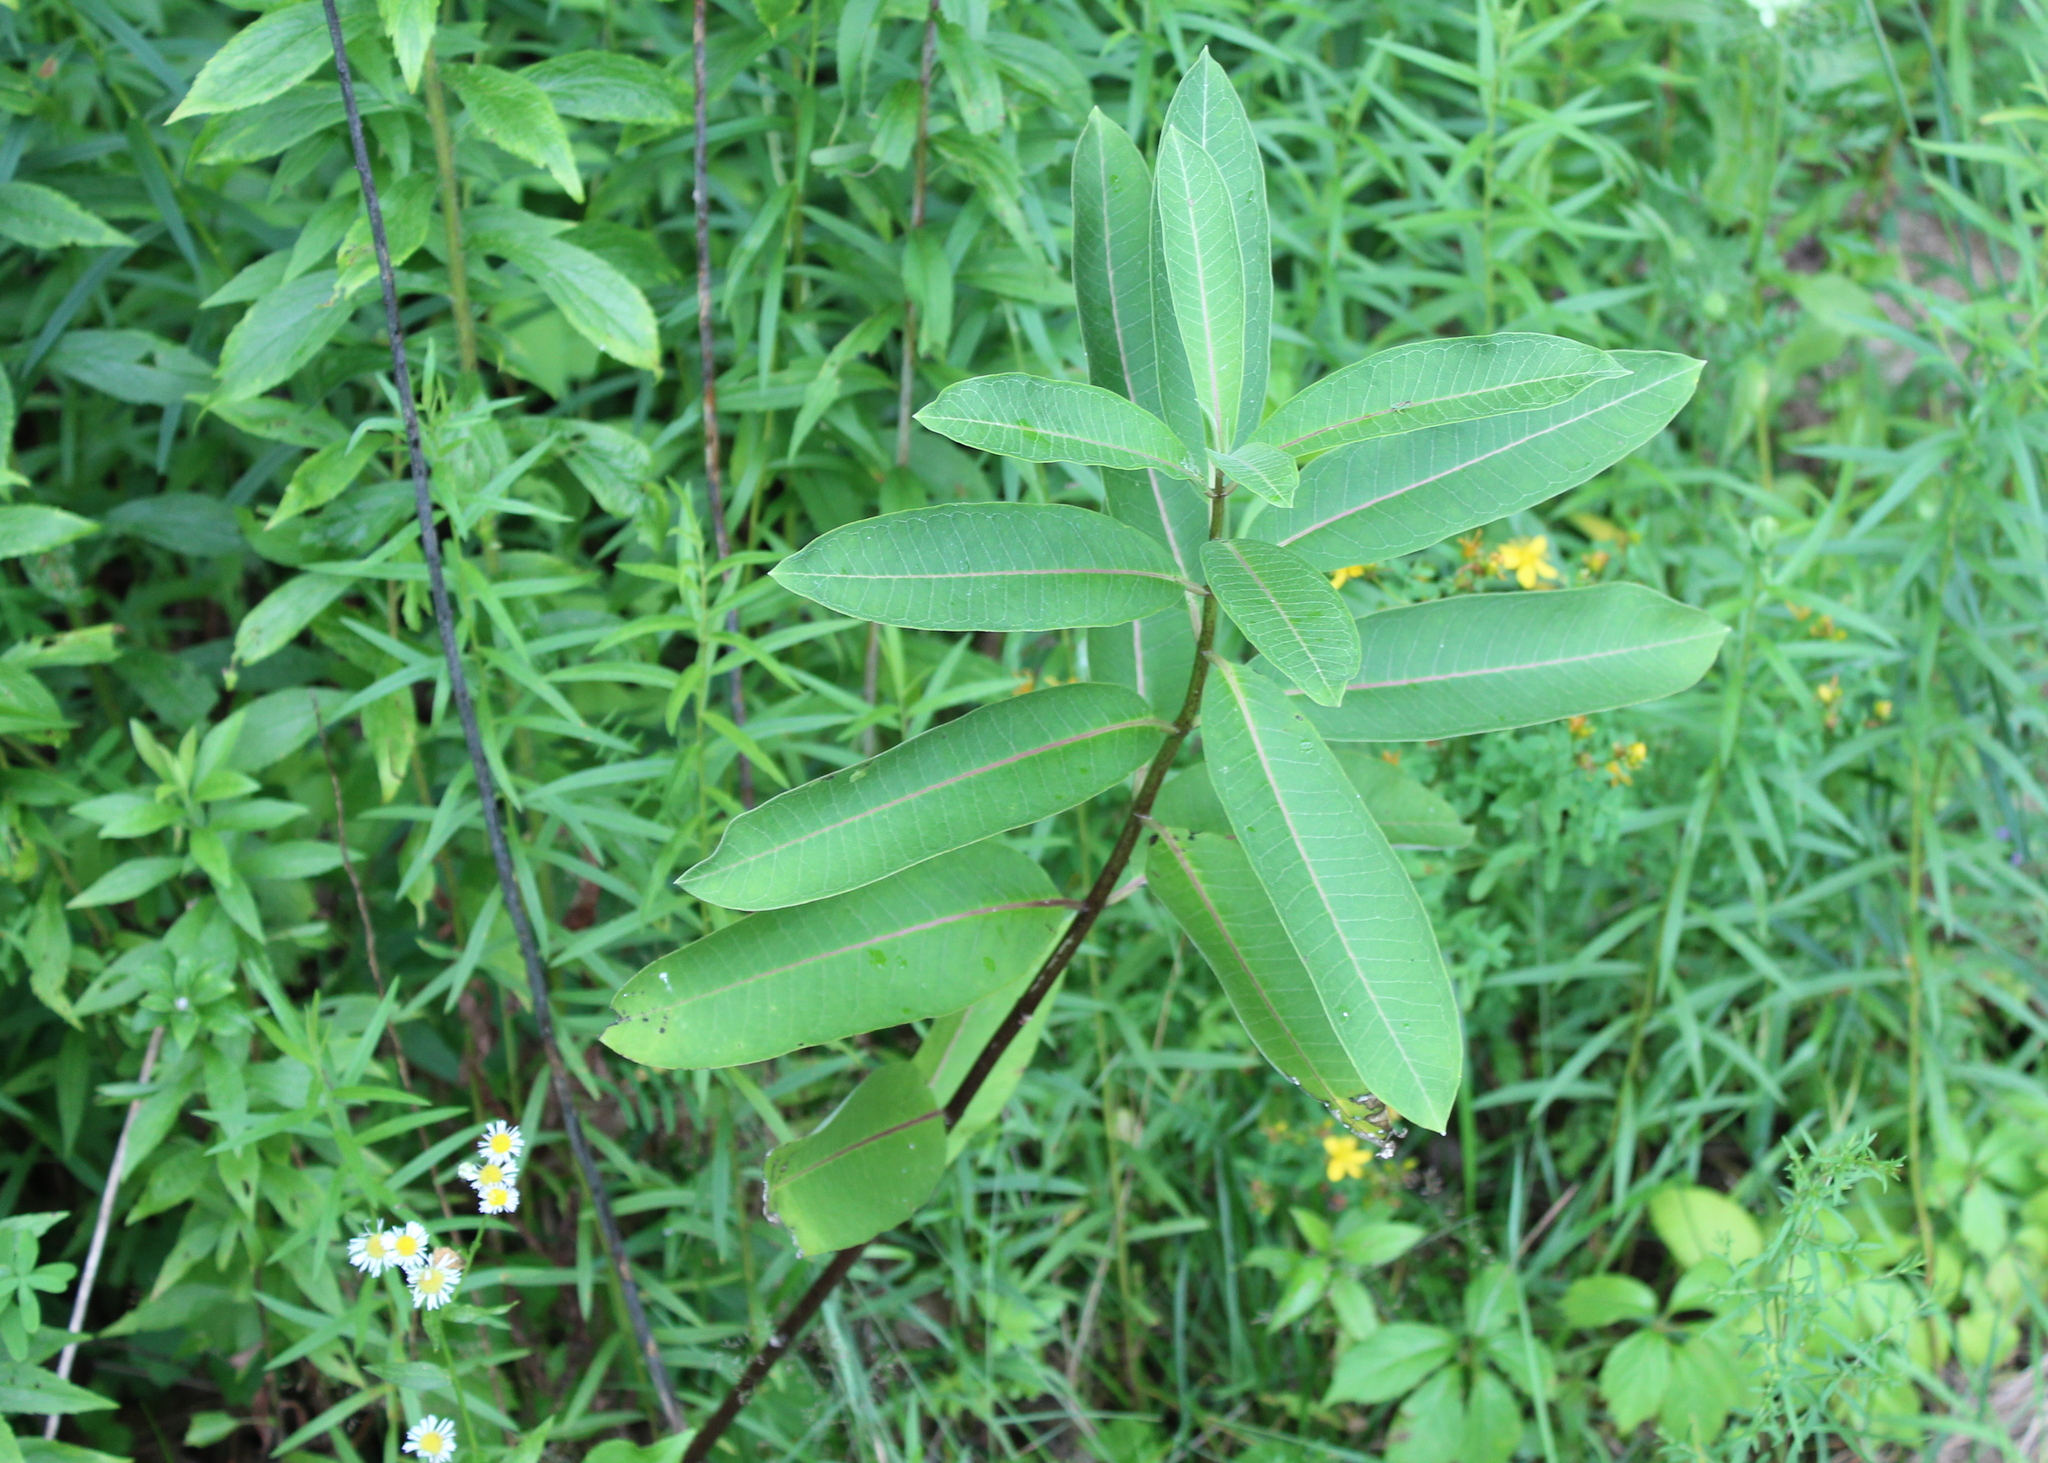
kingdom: Plantae
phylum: Tracheophyta
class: Magnoliopsida
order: Gentianales
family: Apocynaceae
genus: Asclepias
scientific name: Asclepias syriaca
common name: Common milkweed
